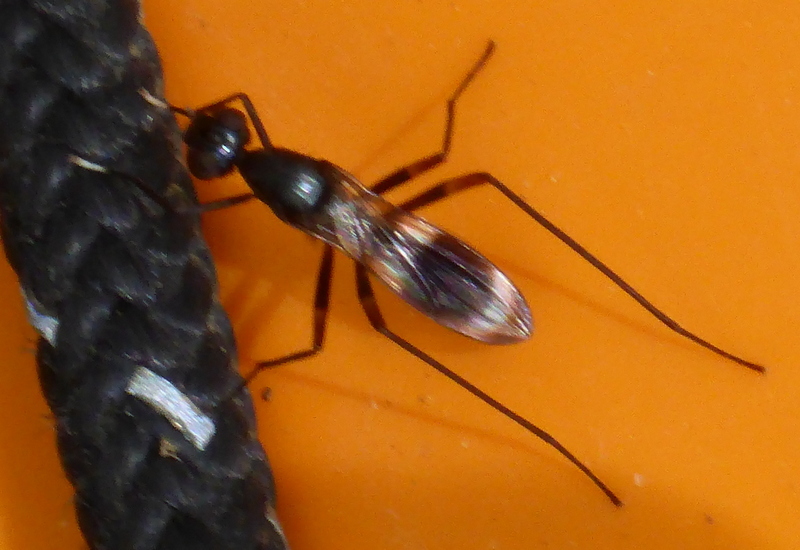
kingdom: Animalia
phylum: Arthropoda
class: Insecta
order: Diptera
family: Micropezidae
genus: Taeniaptera
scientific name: Taeniaptera trivittata
